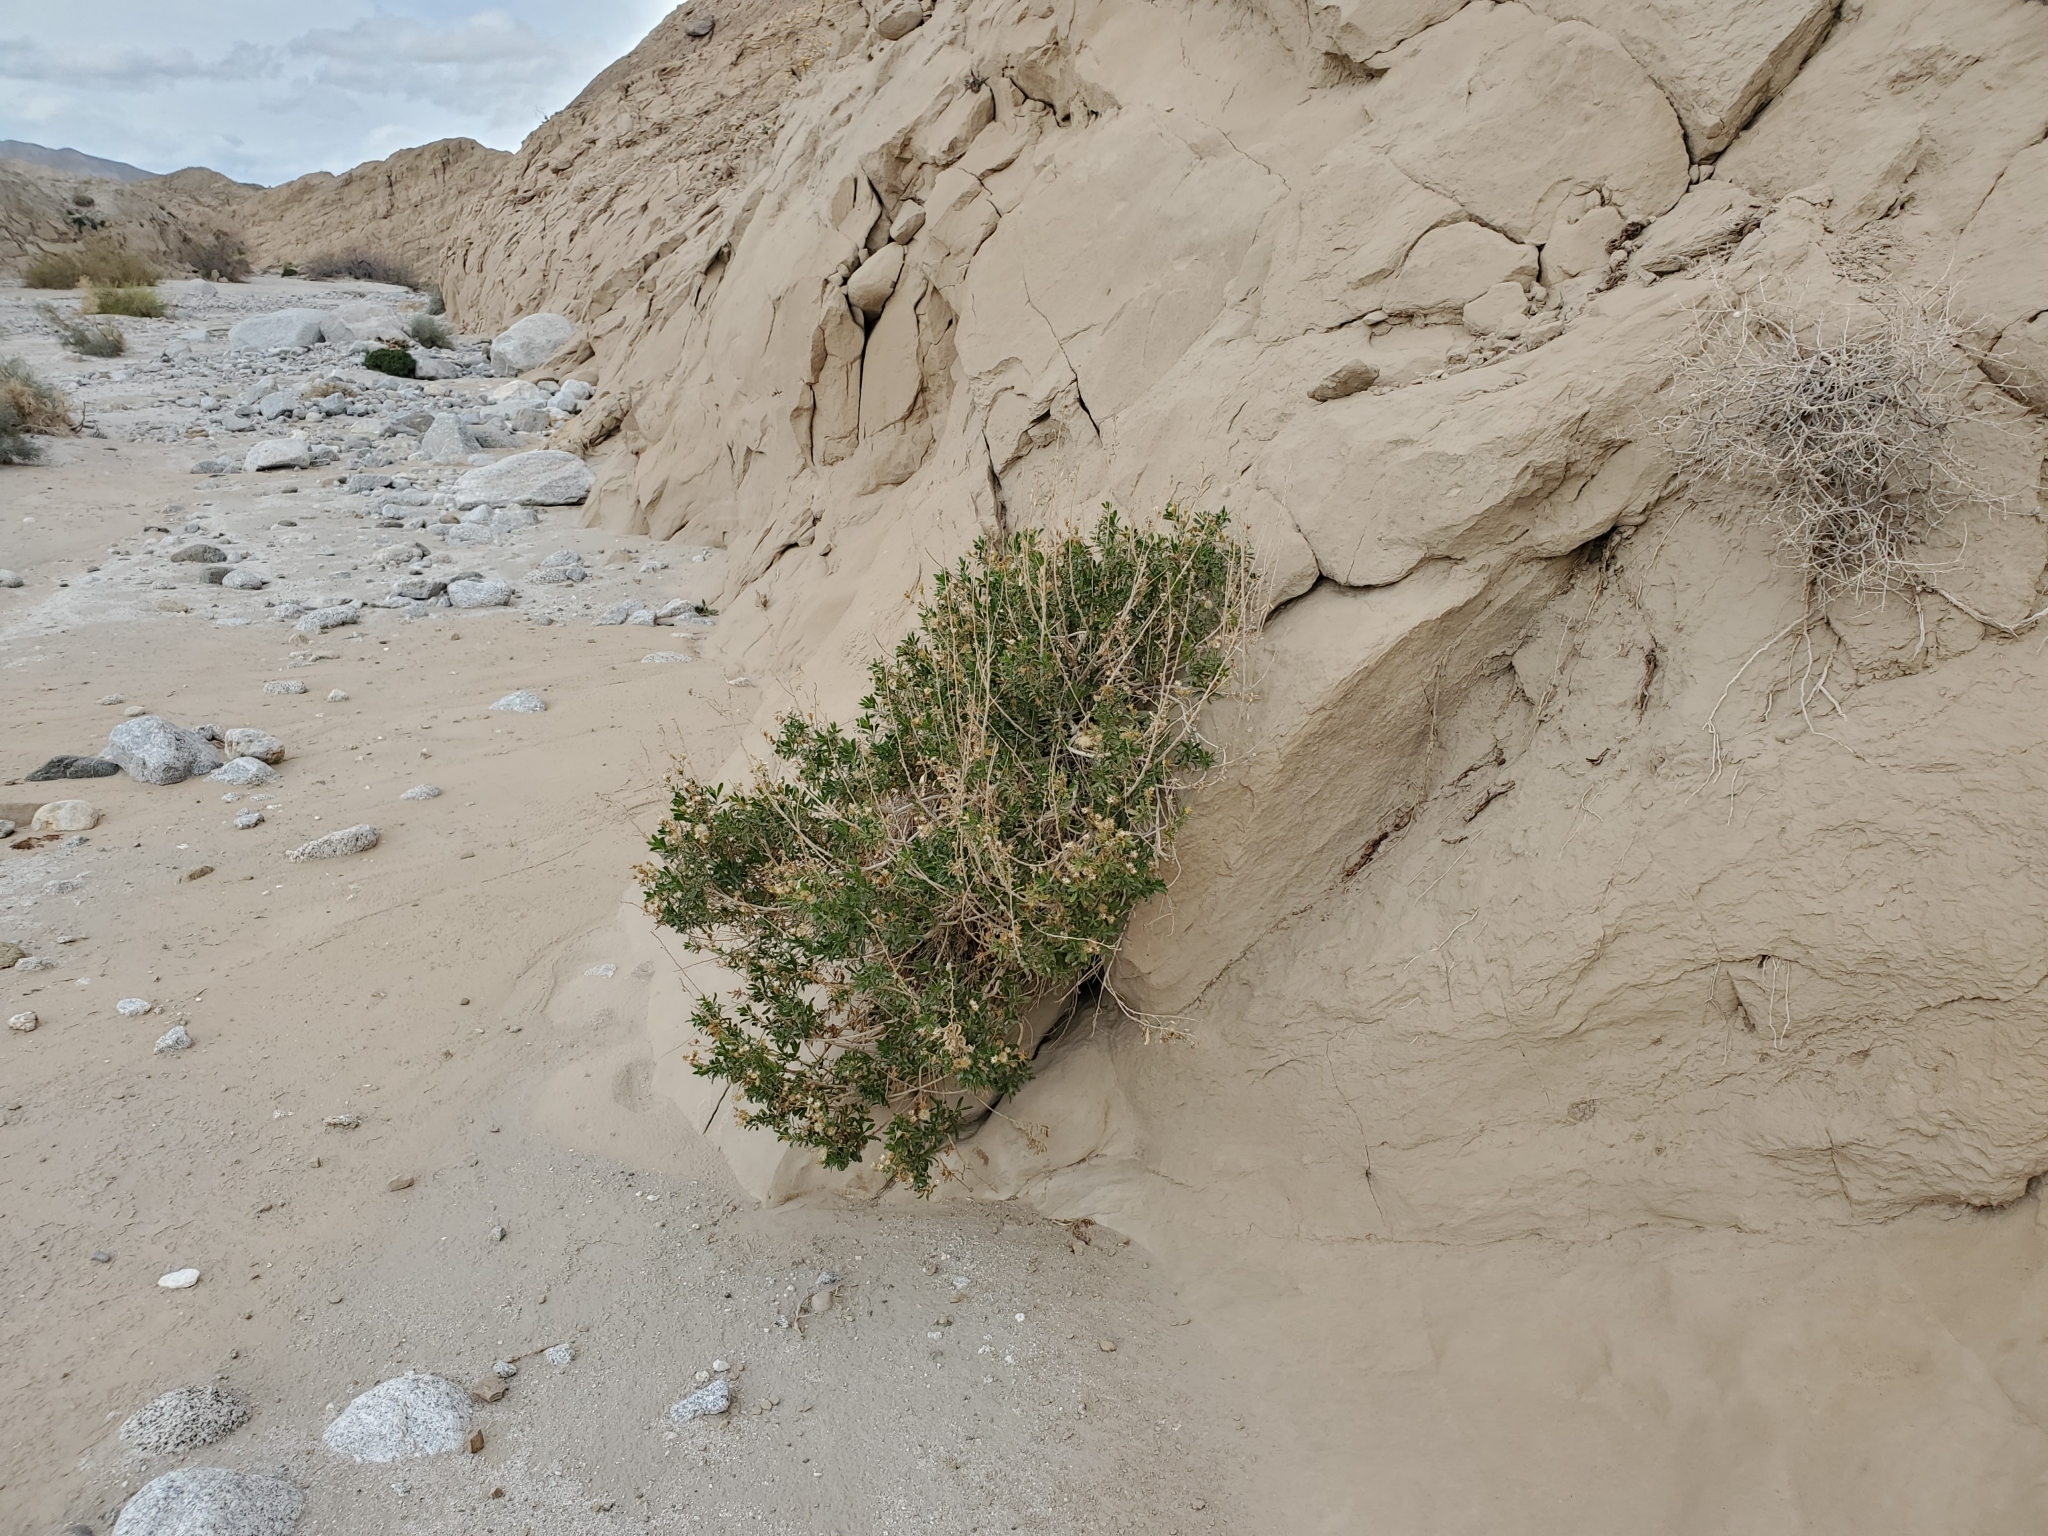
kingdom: Plantae
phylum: Tracheophyta
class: Magnoliopsida
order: Asterales
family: Asteraceae
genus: Isocoma
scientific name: Isocoma acradenia
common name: Alkali jimmyweed
